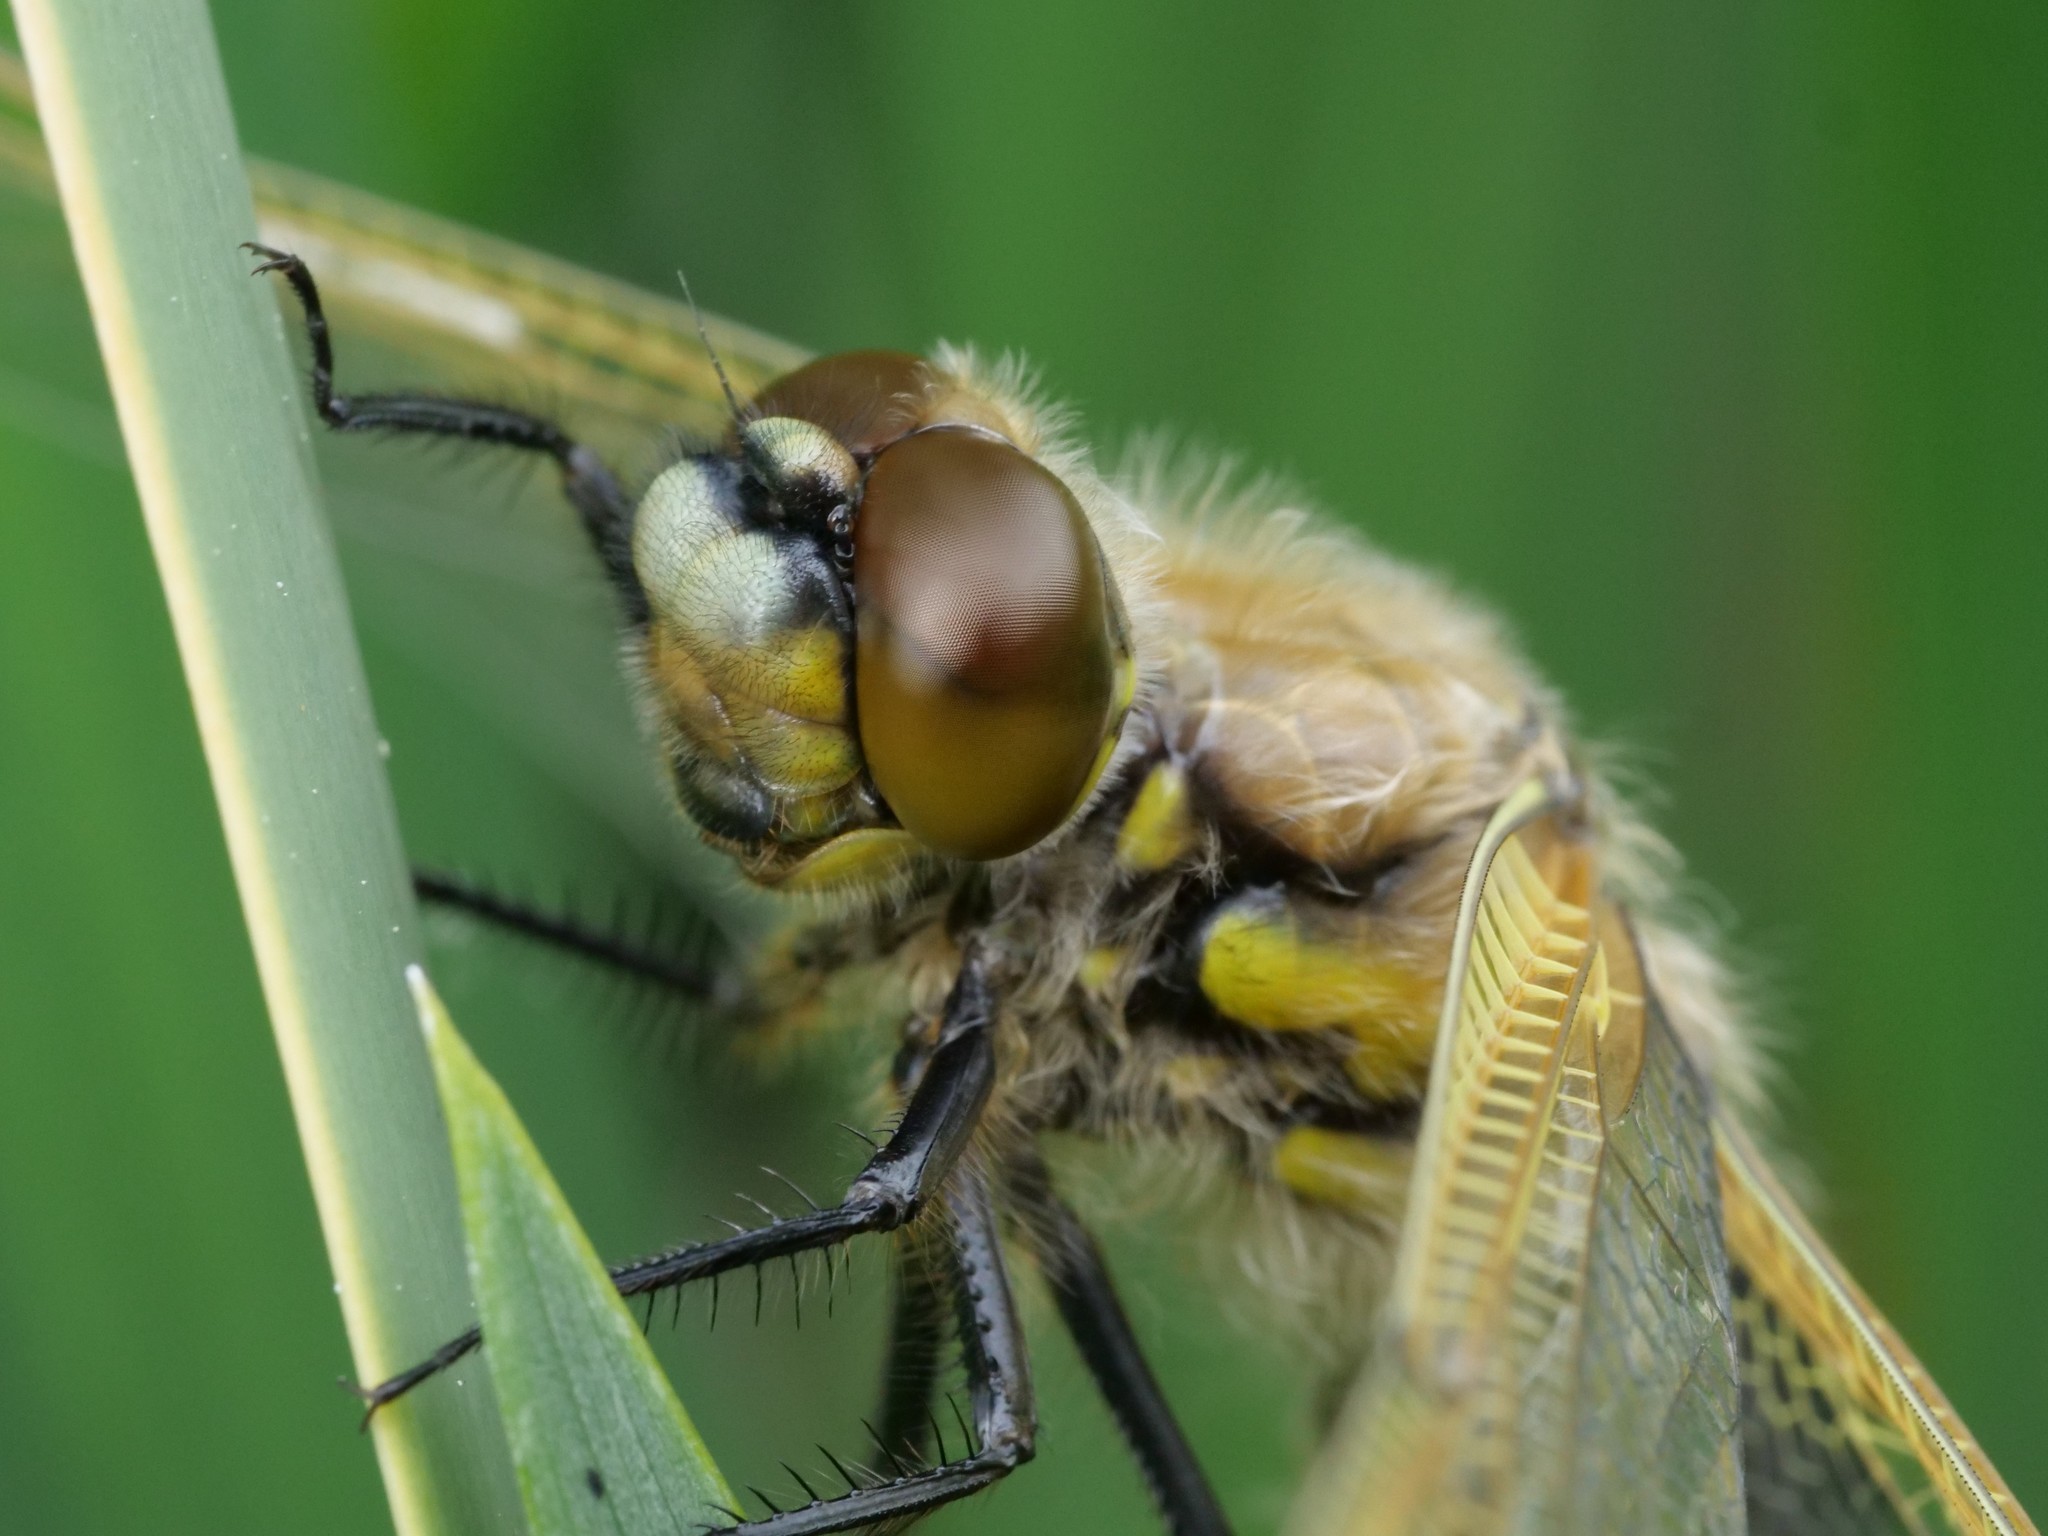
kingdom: Animalia
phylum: Arthropoda
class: Insecta
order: Odonata
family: Libellulidae
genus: Libellula
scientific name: Libellula quadrimaculata
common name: Four-spotted chaser
